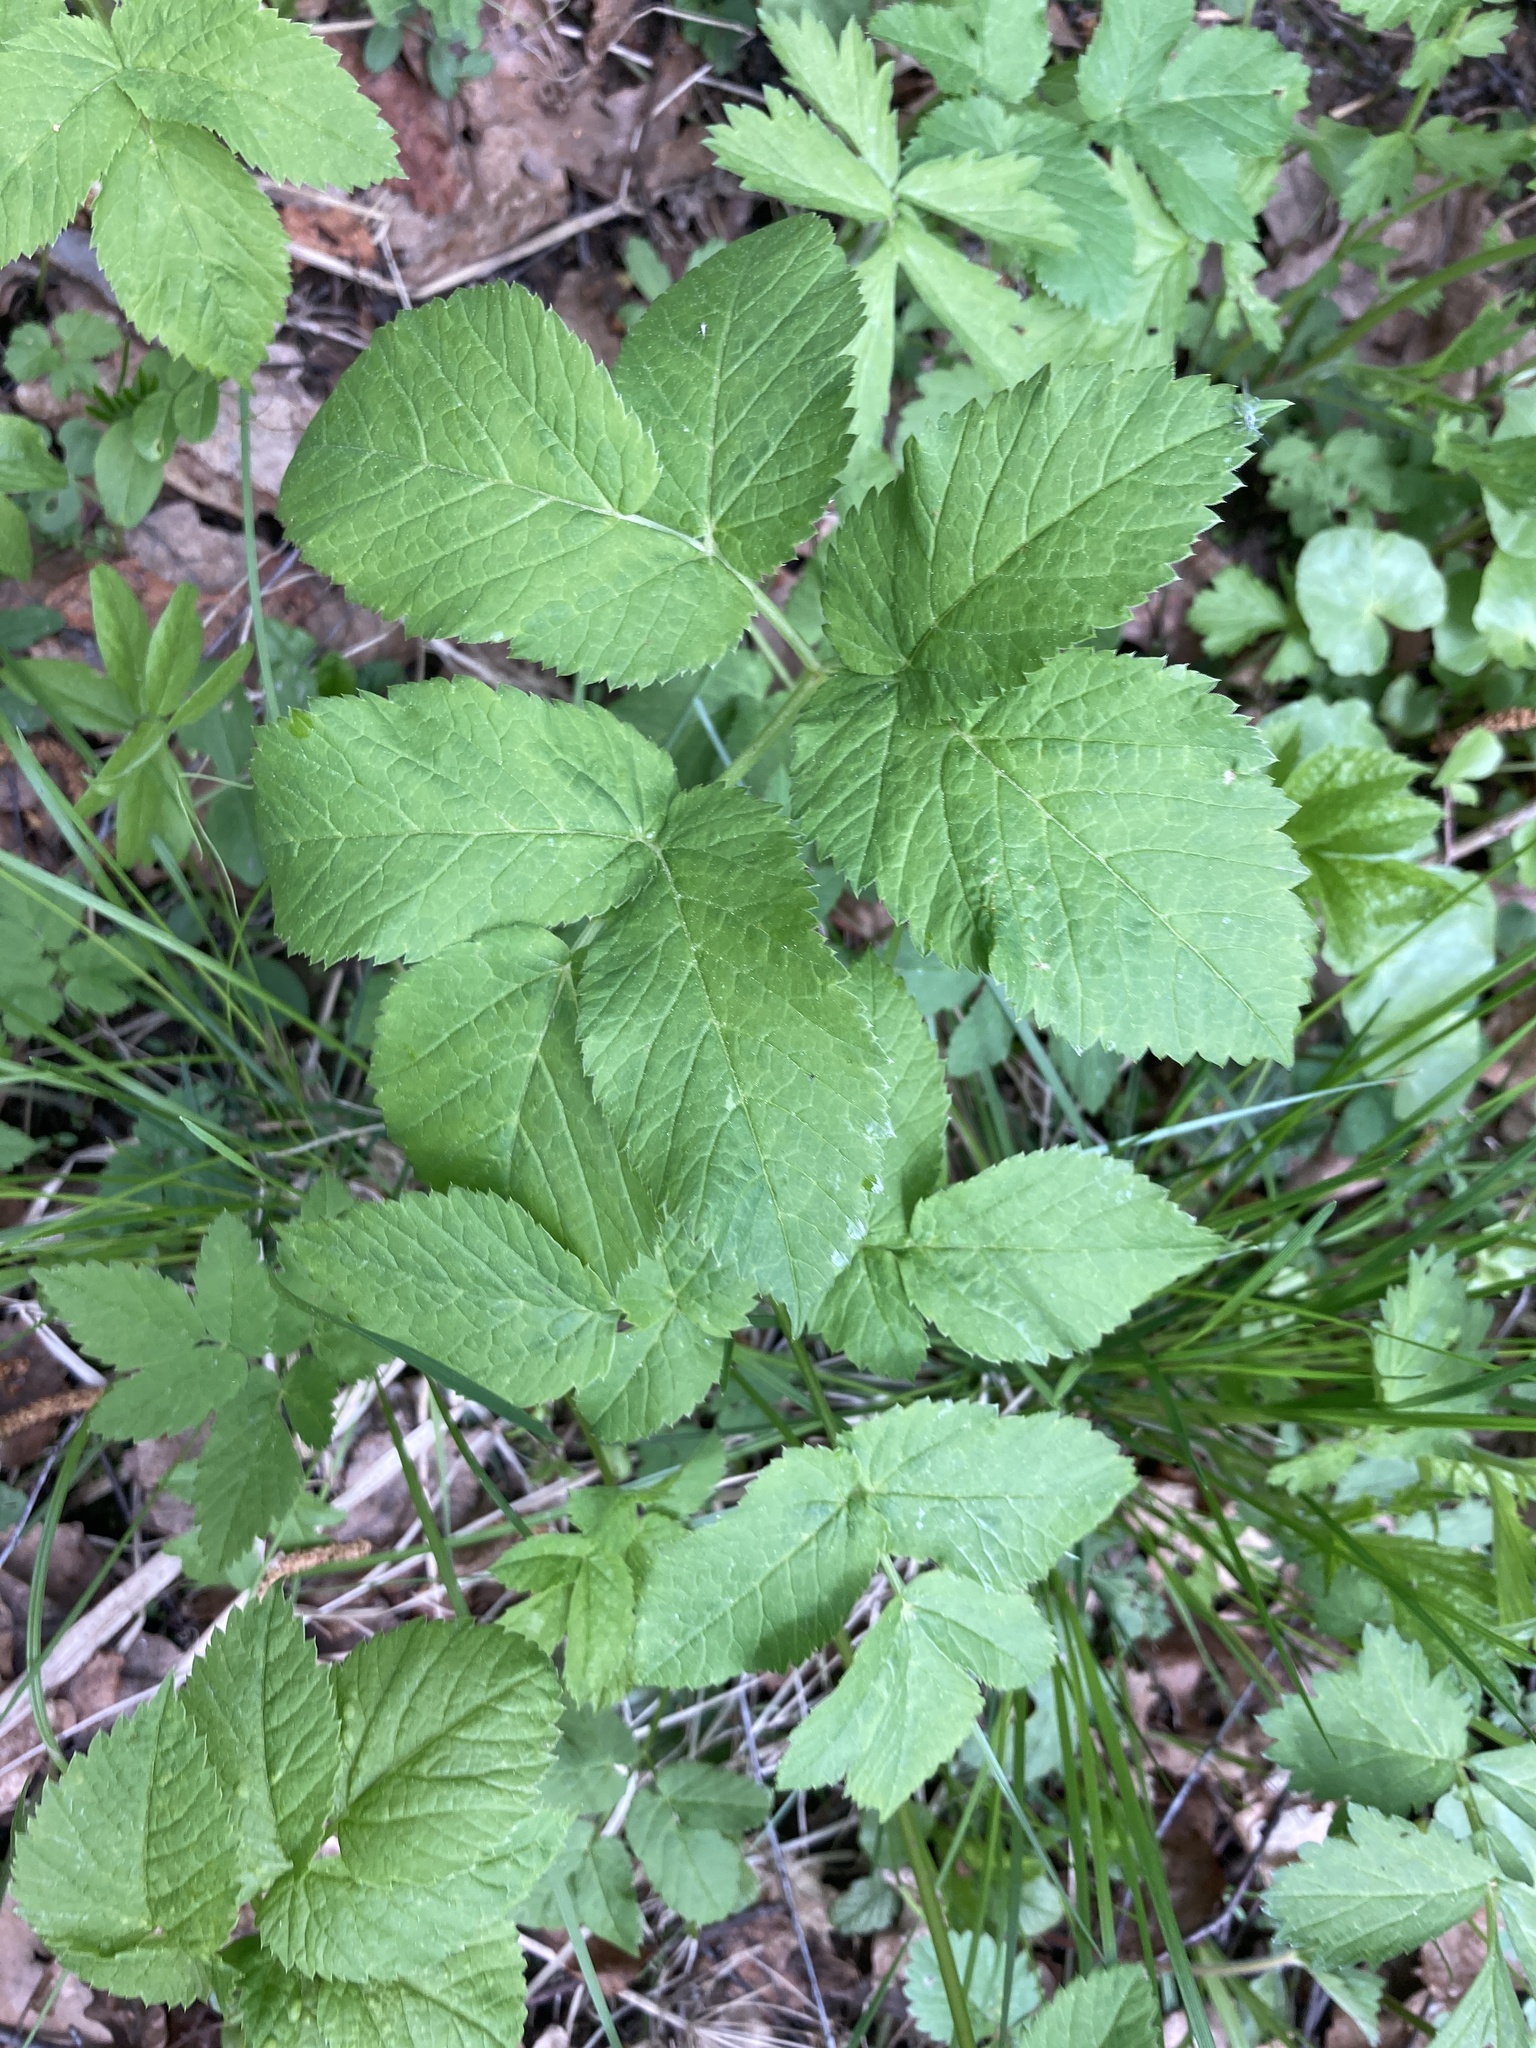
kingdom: Plantae
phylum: Tracheophyta
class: Magnoliopsida
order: Apiales
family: Apiaceae
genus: Aegopodium
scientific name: Aegopodium podagraria
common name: Ground-elder
